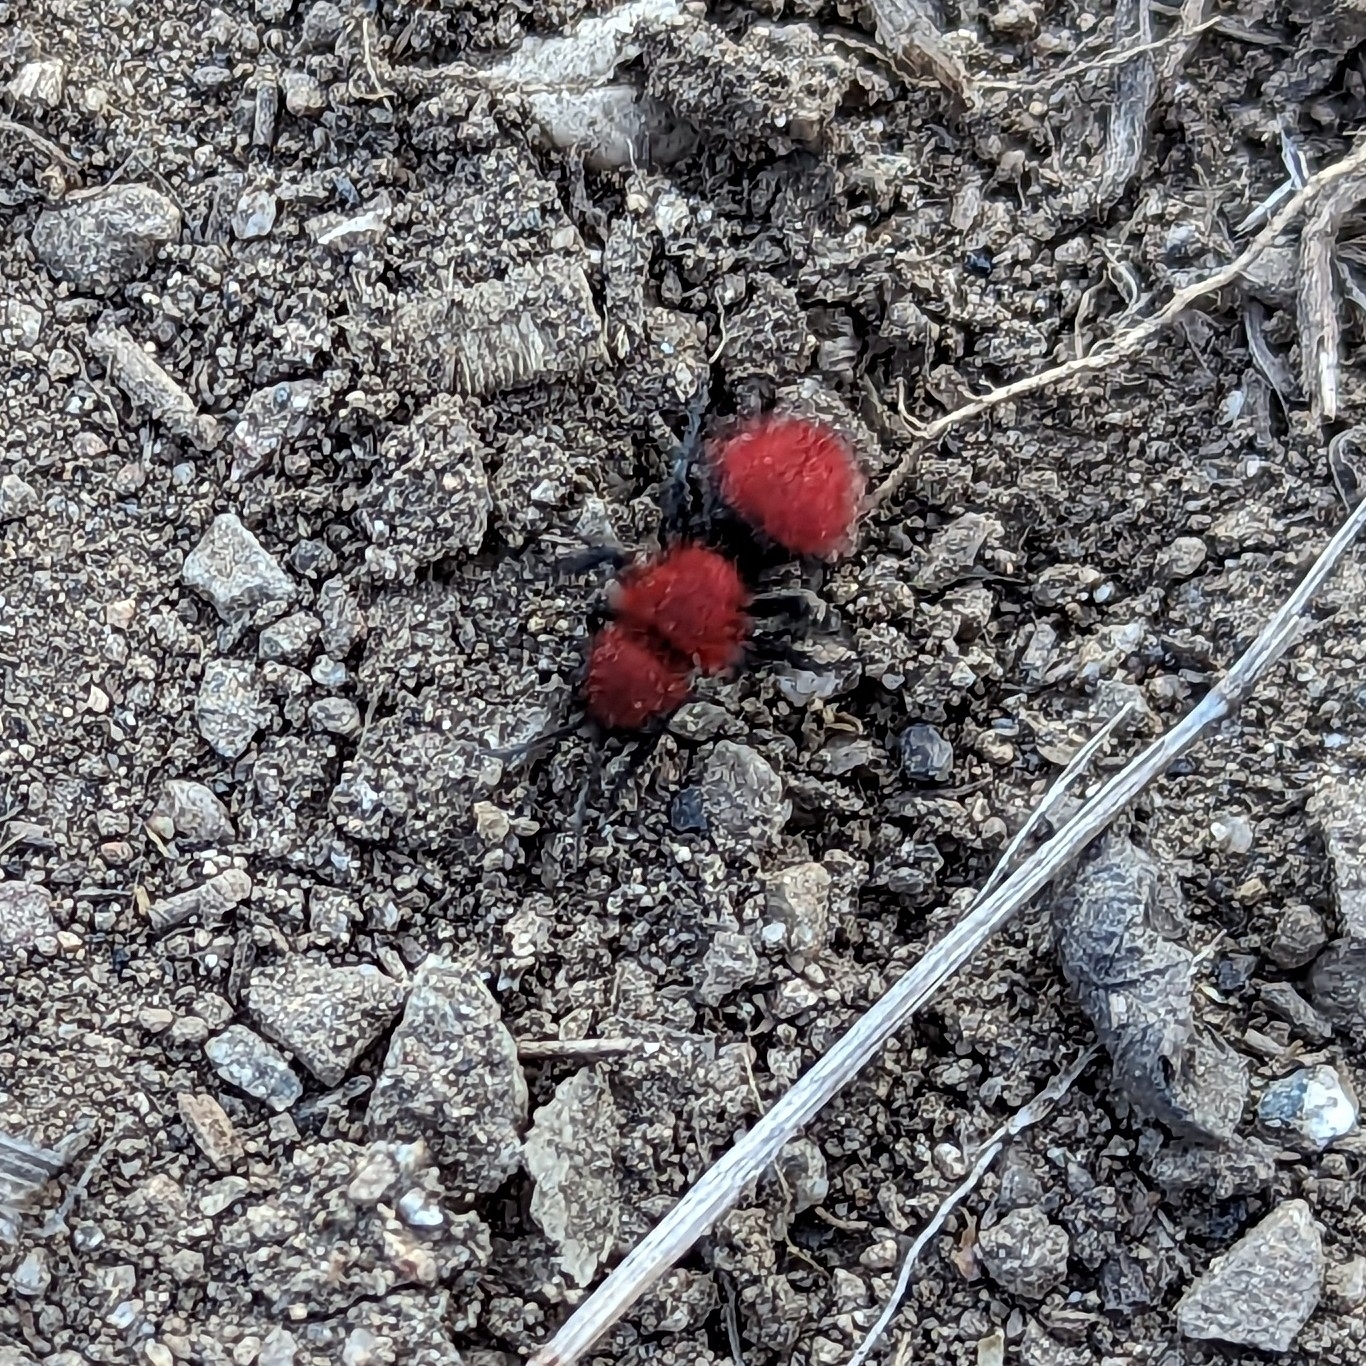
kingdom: Animalia
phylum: Arthropoda
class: Insecta
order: Hymenoptera
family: Mutillidae
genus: Dasymutilla
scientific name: Dasymutilla
